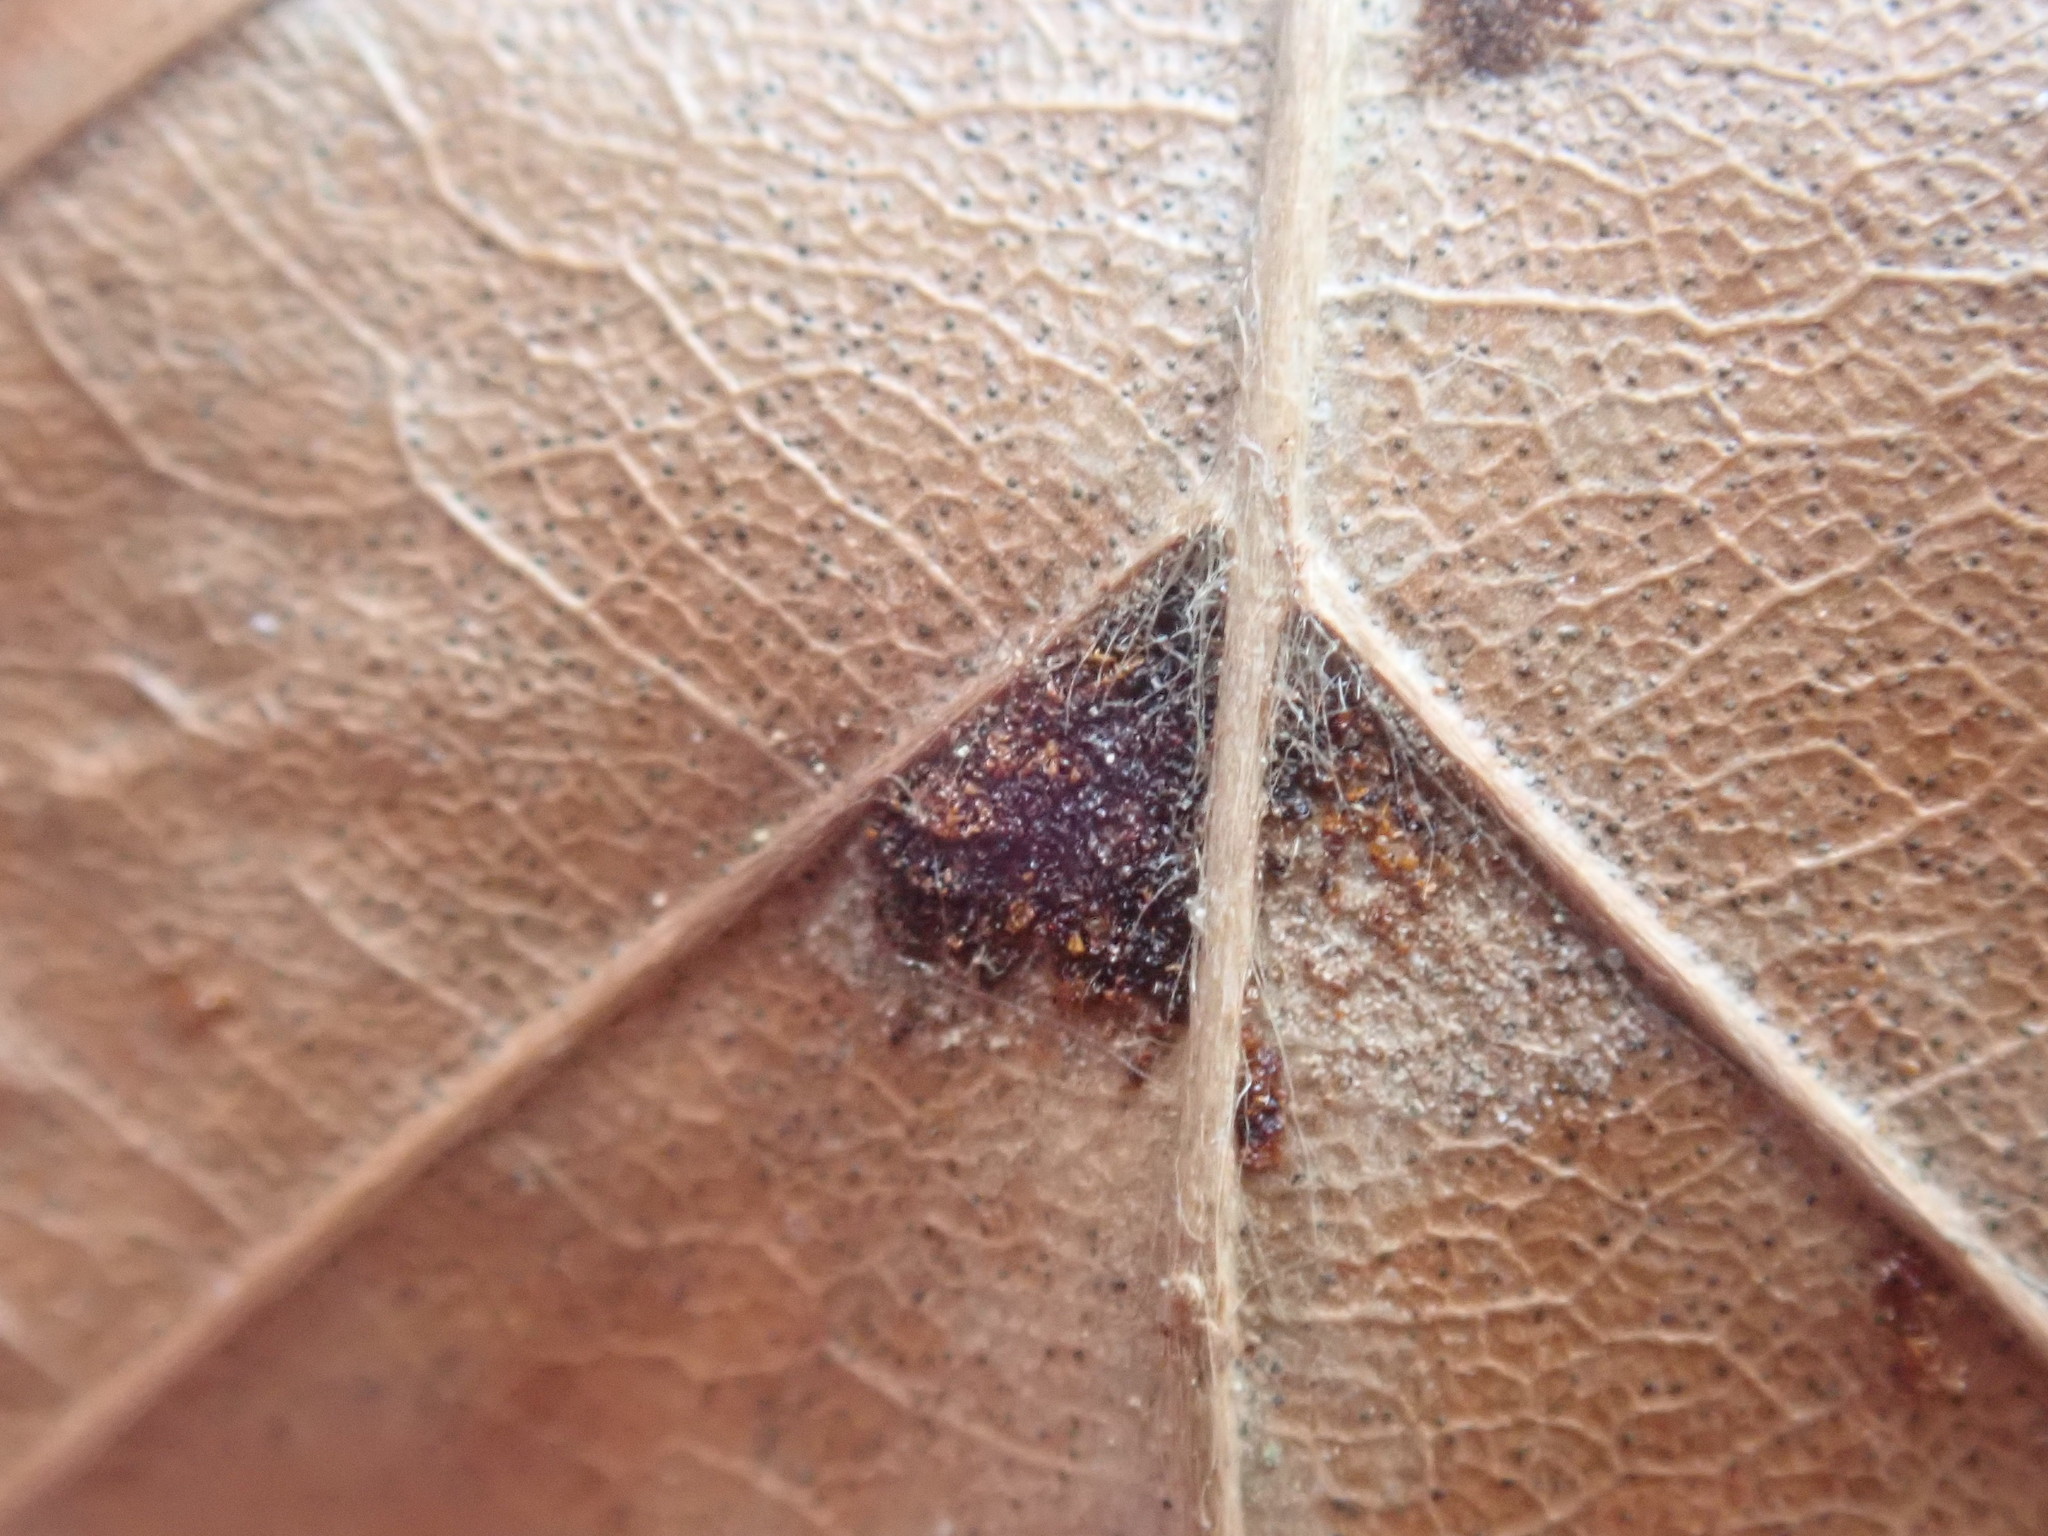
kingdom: Animalia
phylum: Arthropoda
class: Arachnida
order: Trombidiformes
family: Eriophyidae
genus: Acalitus
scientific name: Acalitus
